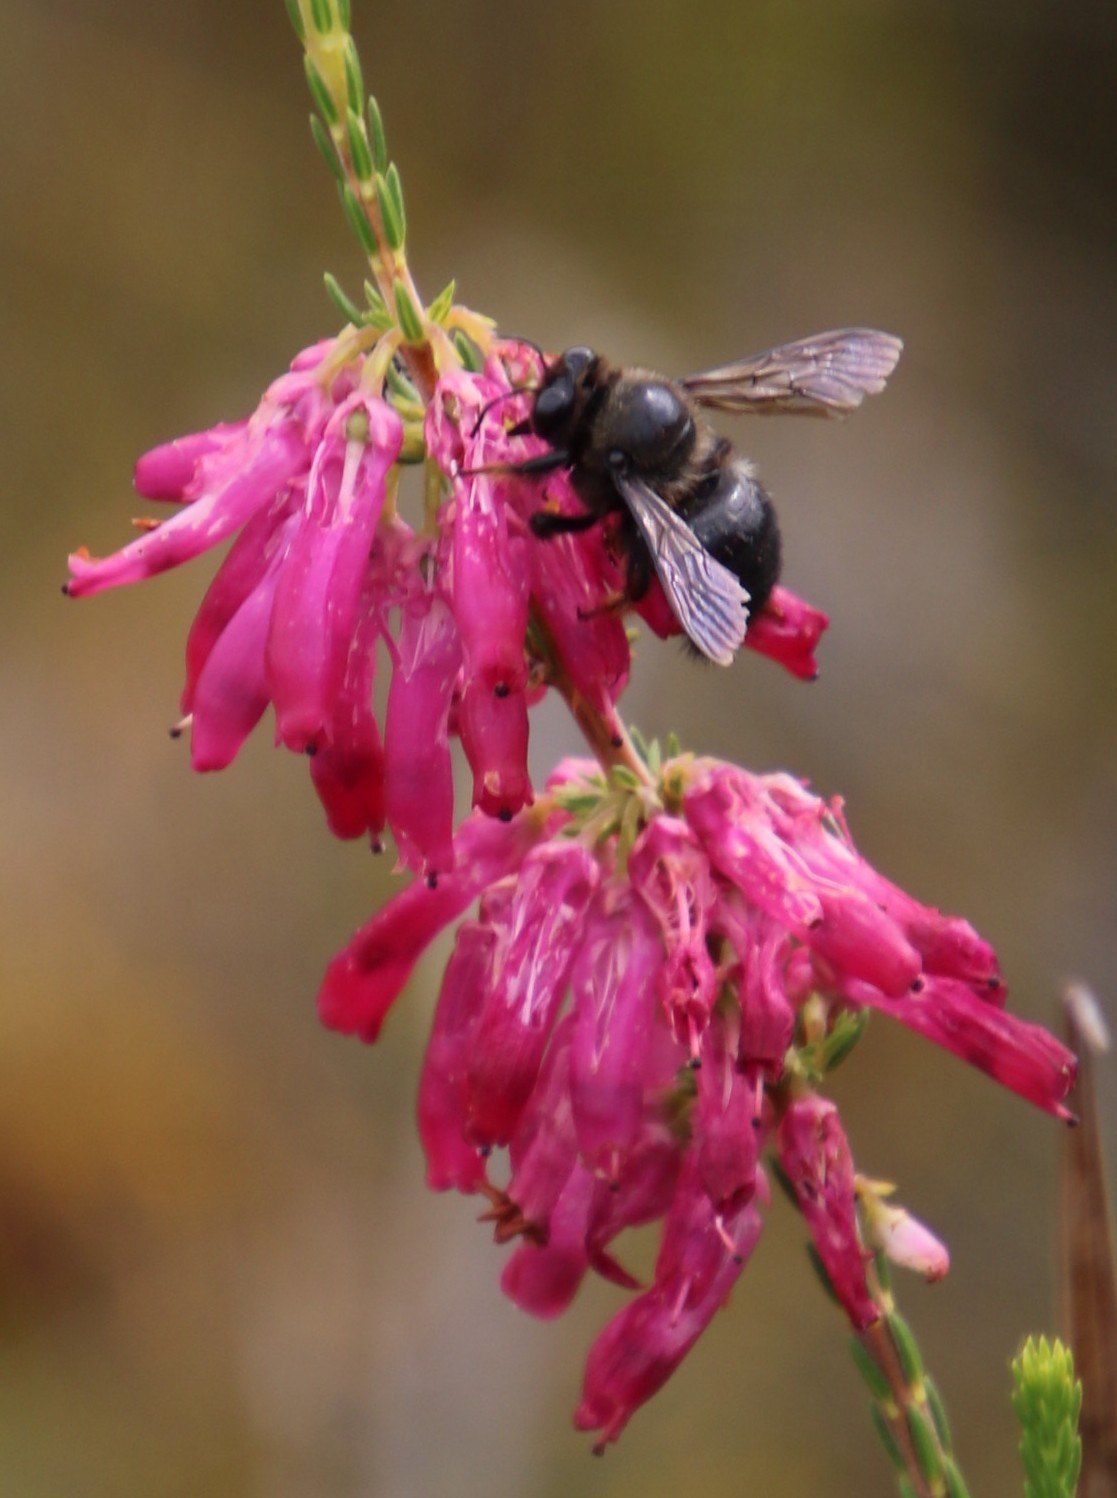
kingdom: Plantae
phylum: Tracheophyta
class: Magnoliopsida
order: Ericales
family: Ericaceae
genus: Erica
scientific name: Erica mammosa
